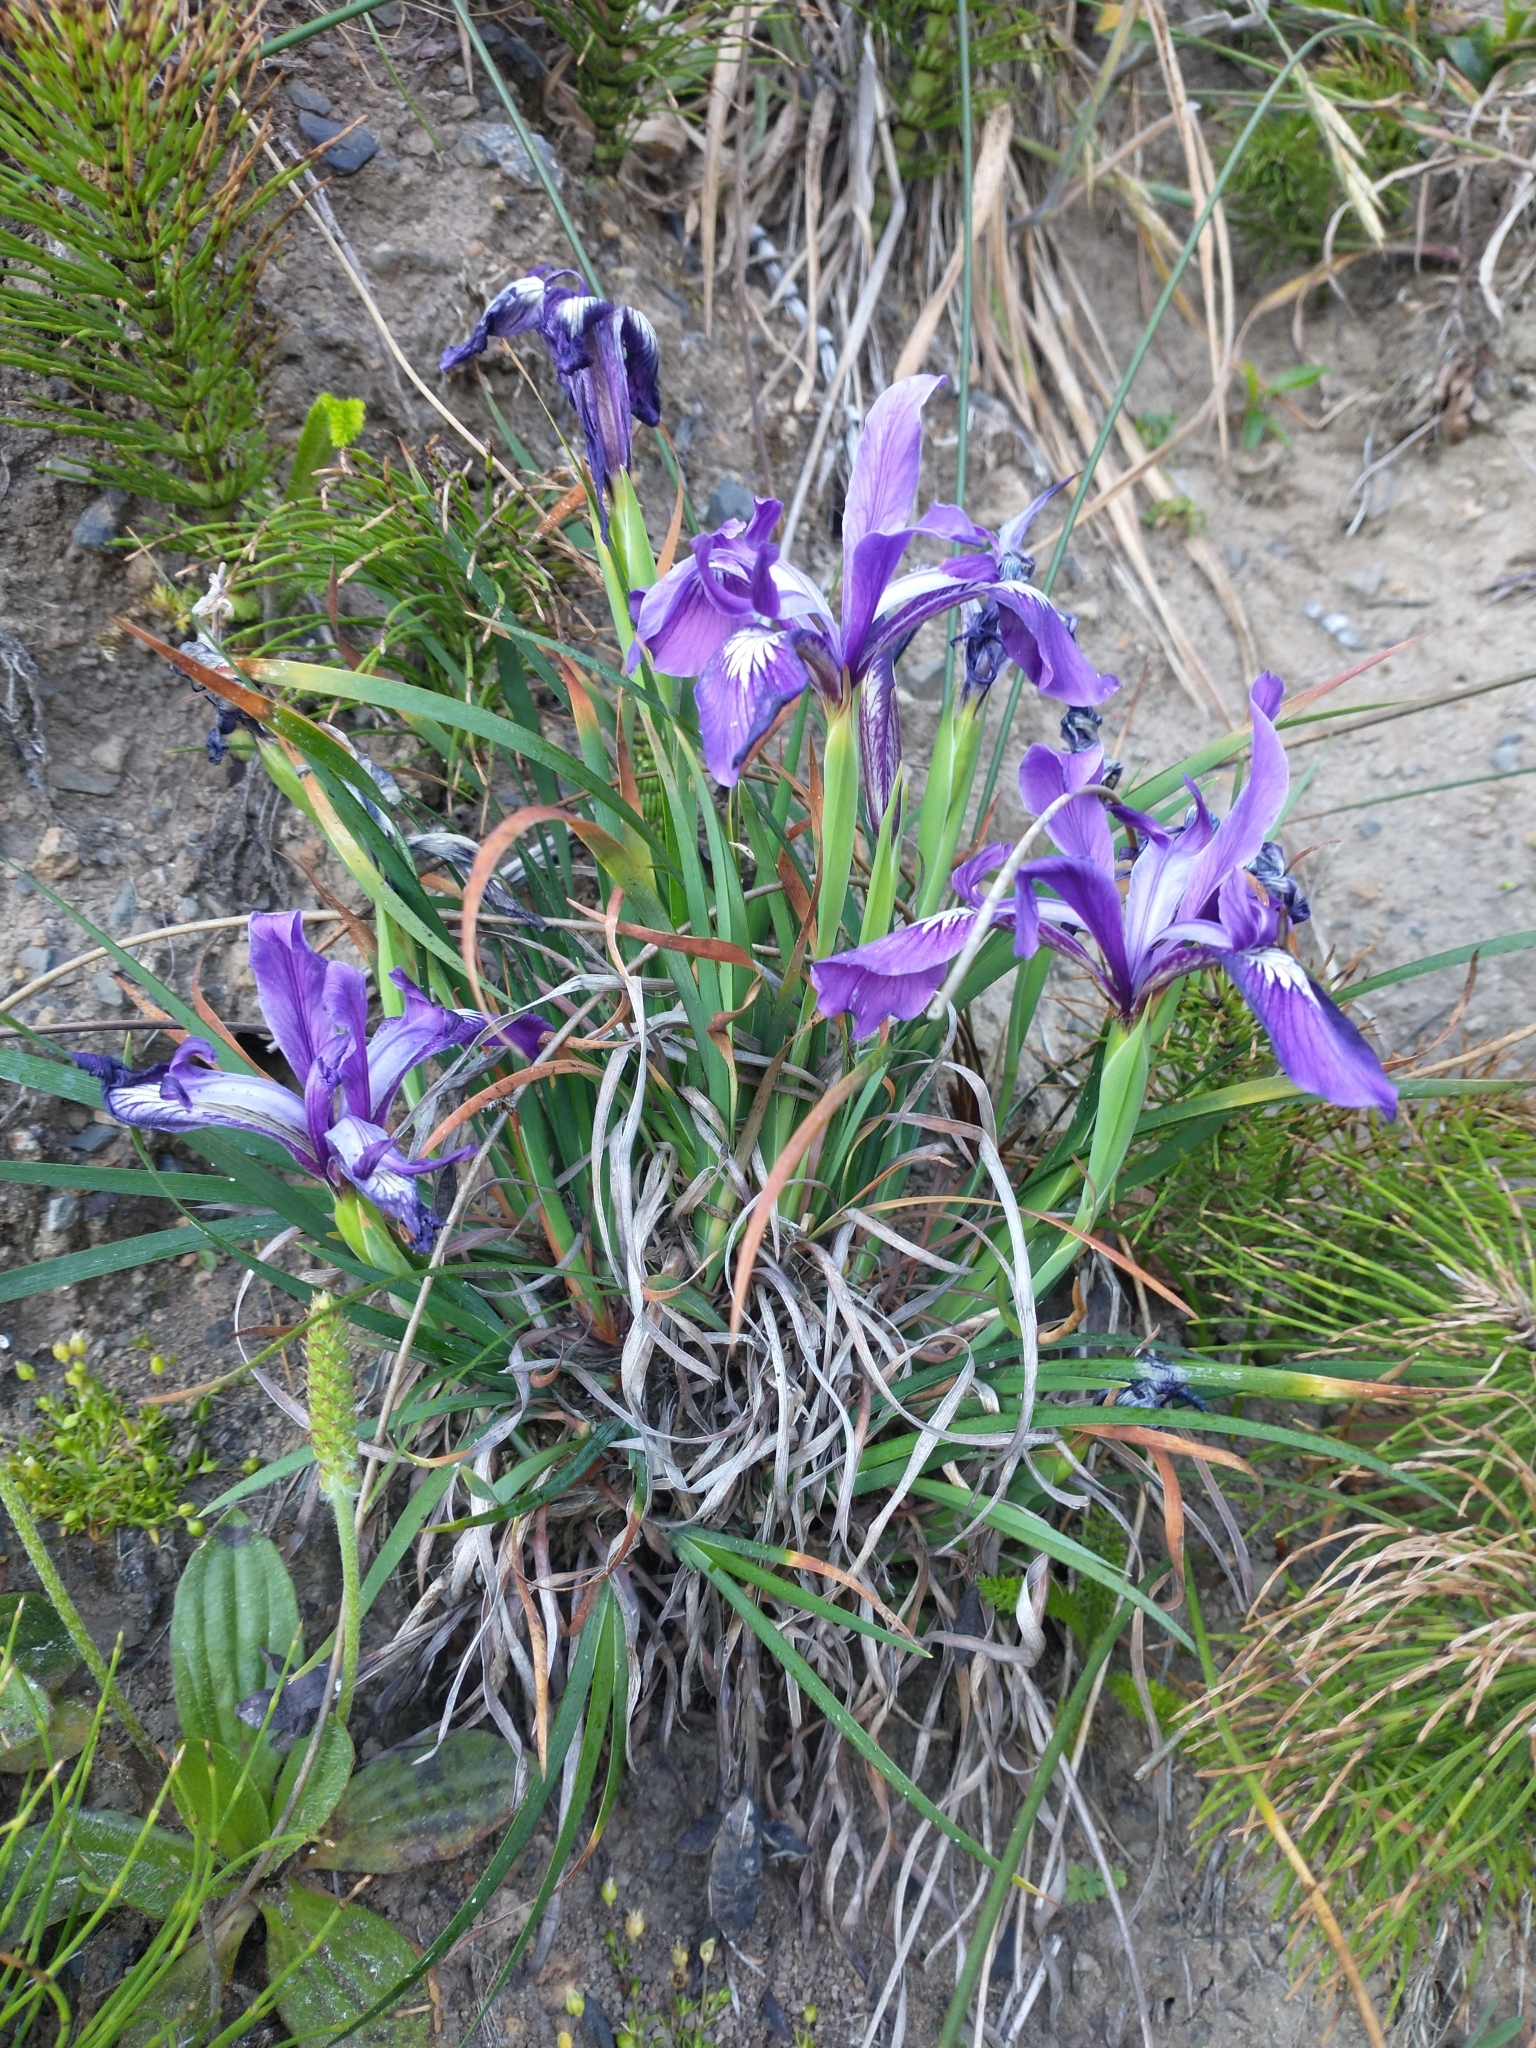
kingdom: Plantae
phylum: Tracheophyta
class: Liliopsida
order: Asparagales
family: Iridaceae
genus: Iris
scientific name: Iris tenax
